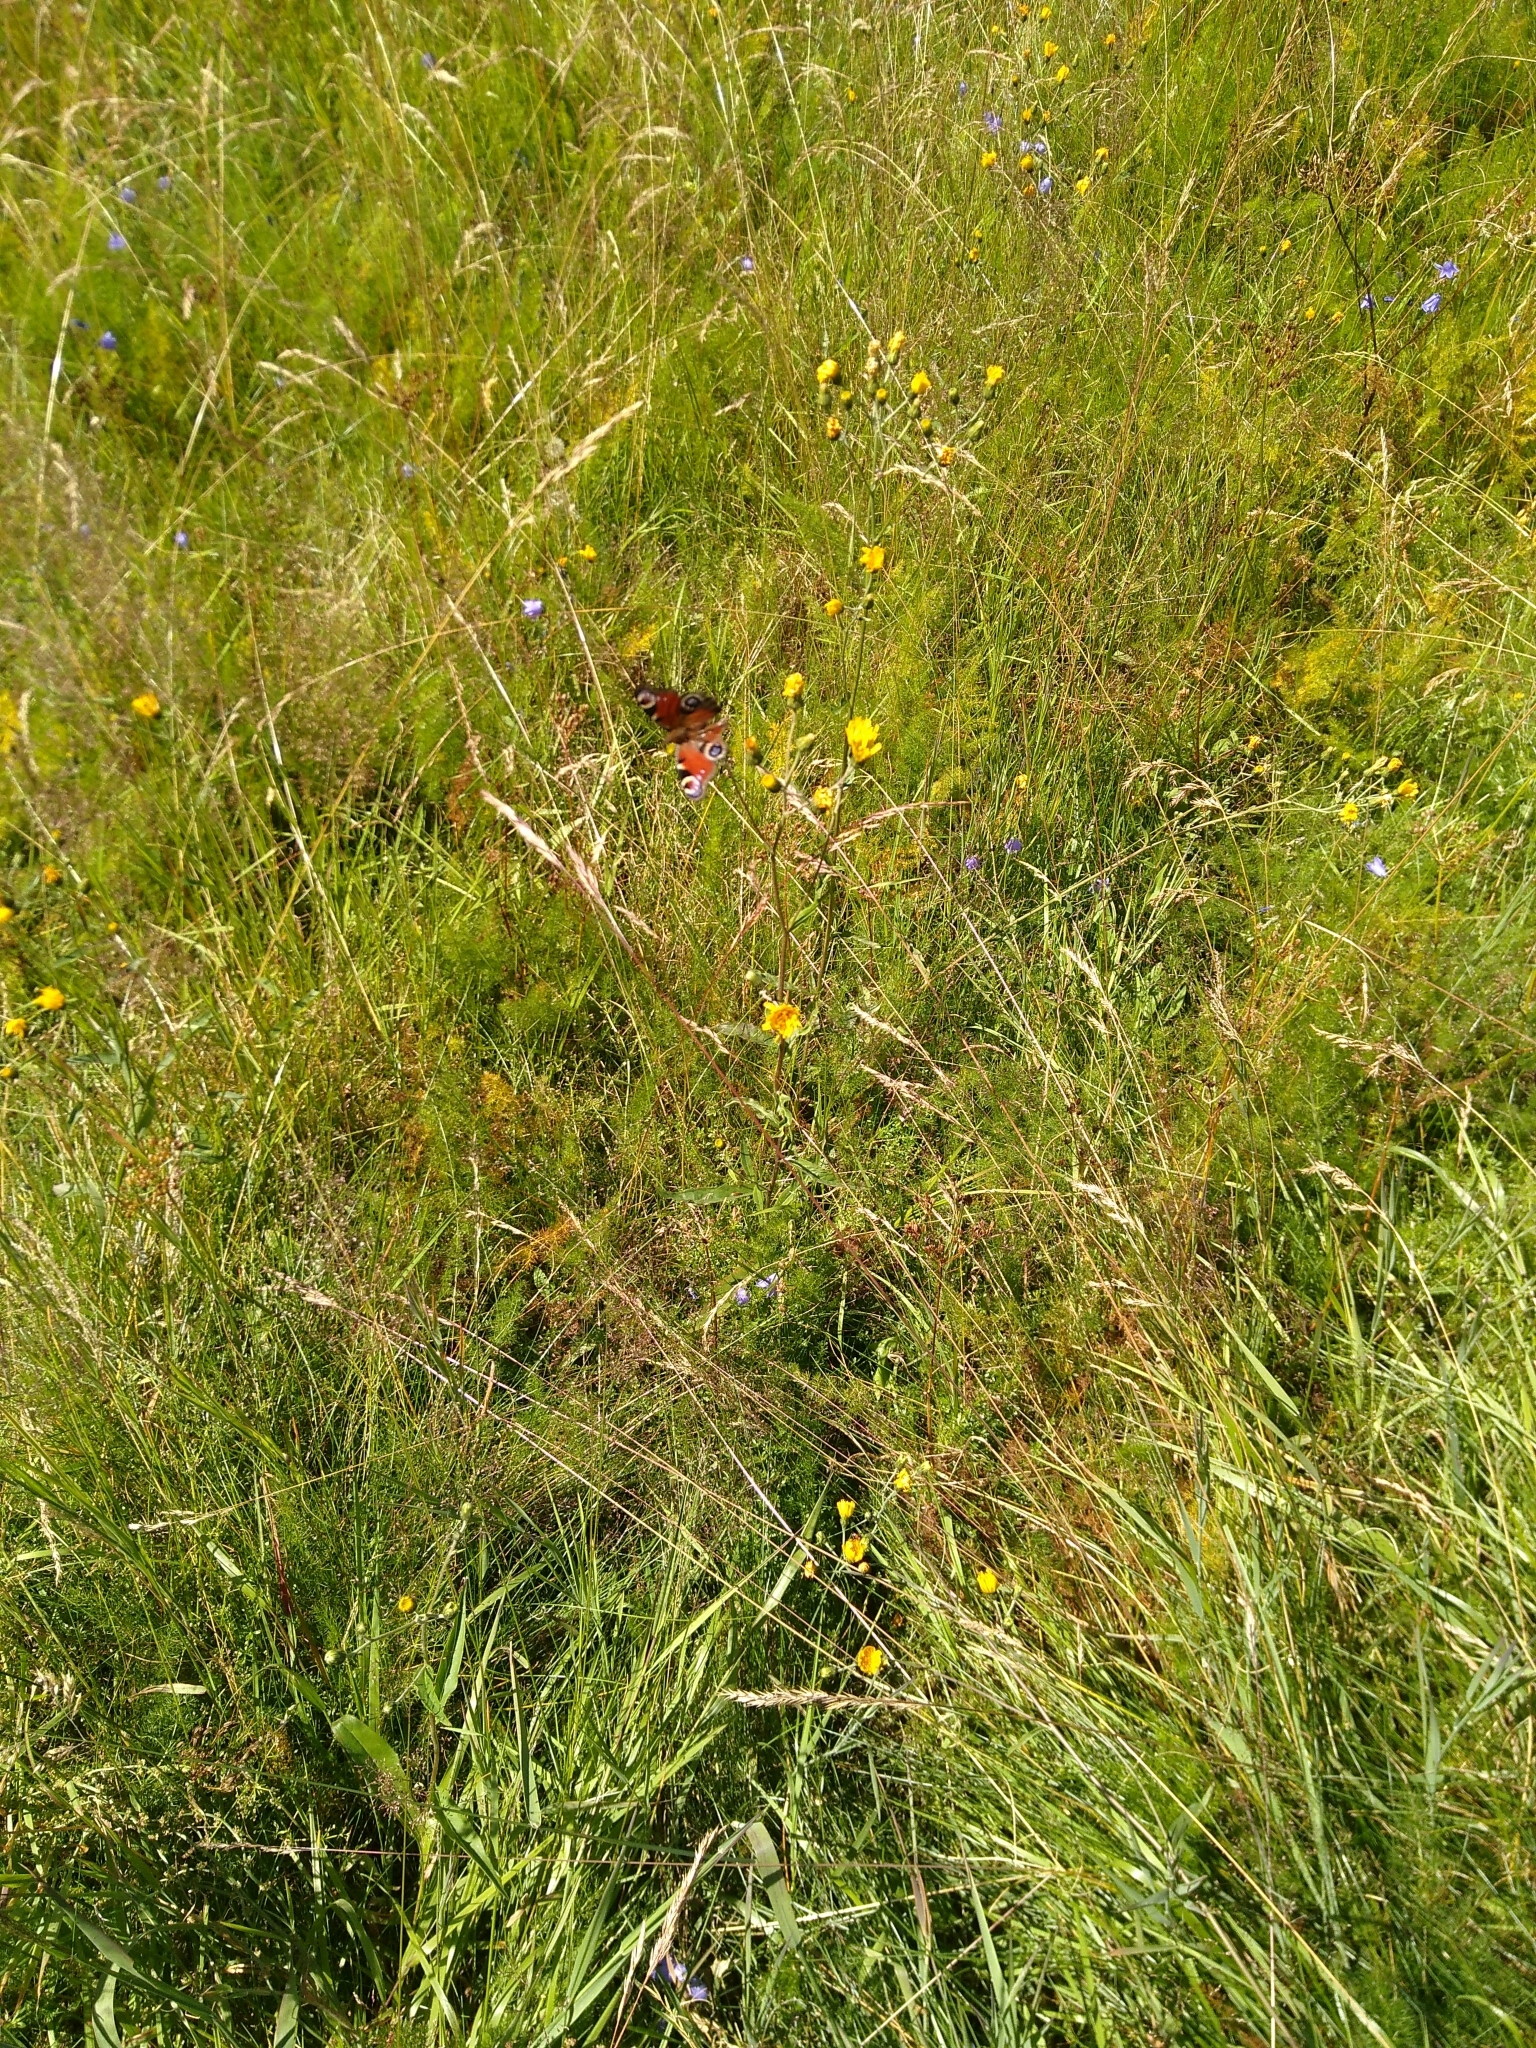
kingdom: Animalia
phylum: Arthropoda
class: Insecta
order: Lepidoptera
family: Nymphalidae
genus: Aglais
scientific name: Aglais io
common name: Peacock
